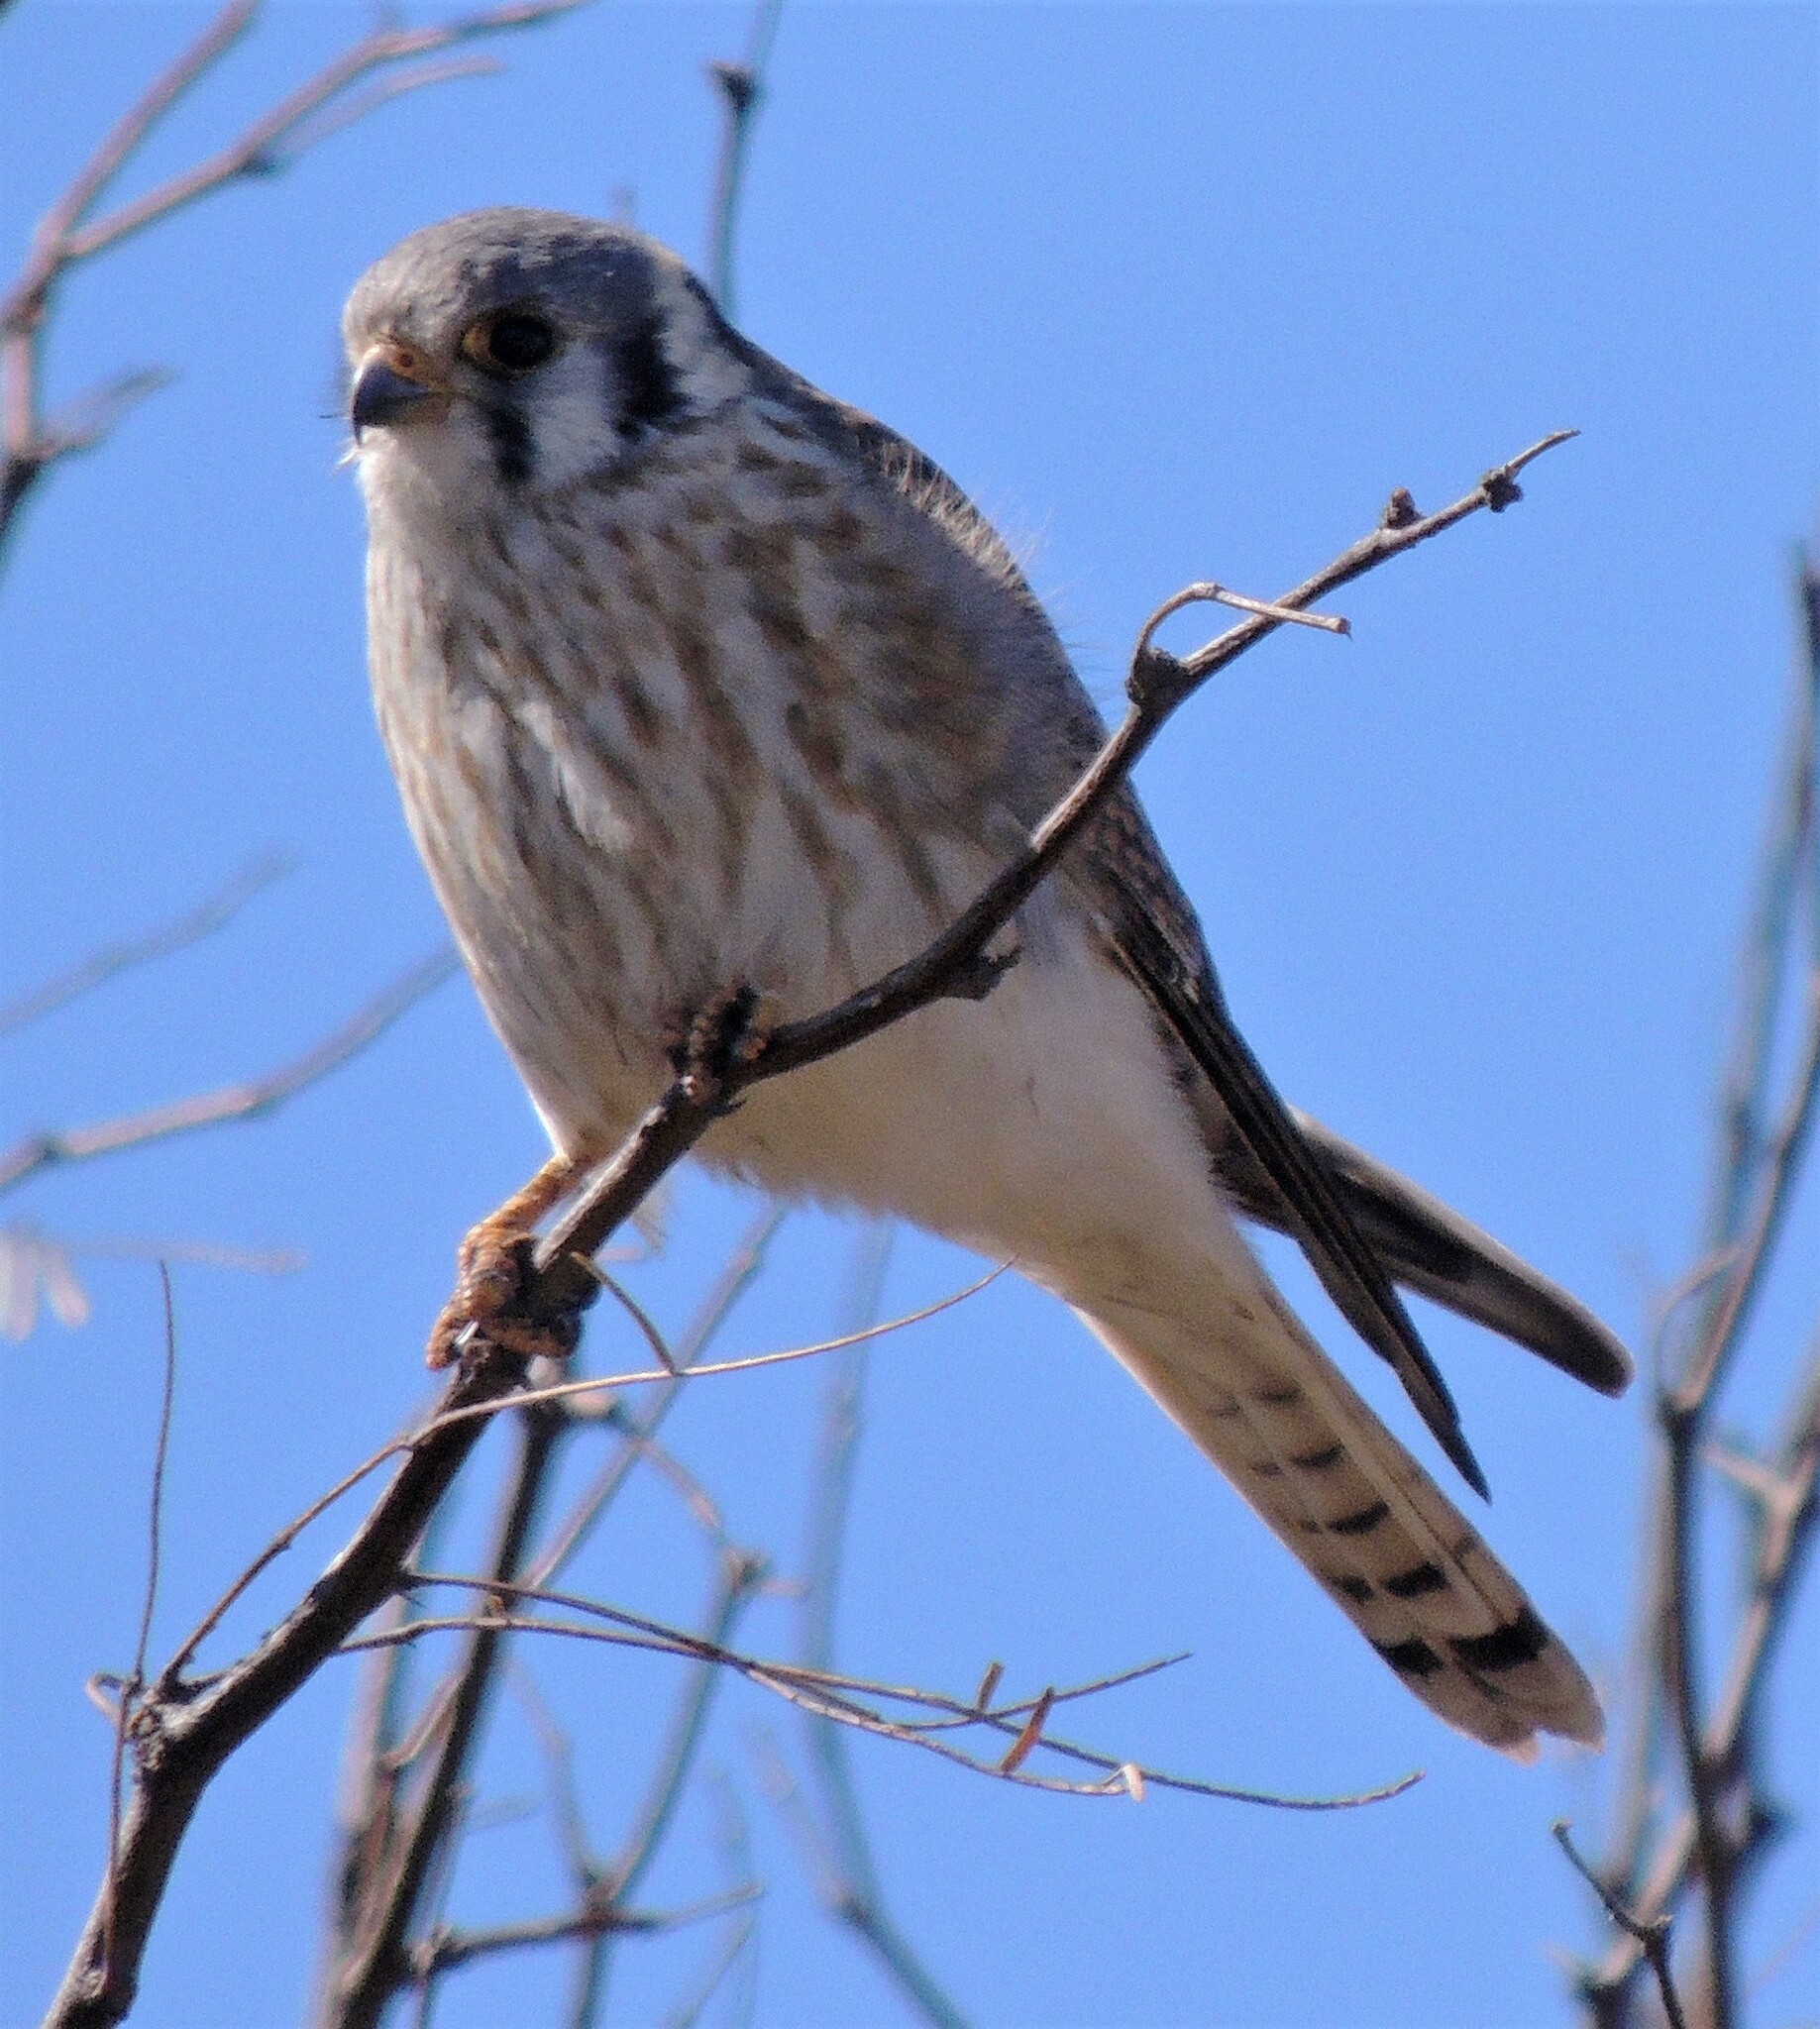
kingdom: Animalia
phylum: Chordata
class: Aves
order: Falconiformes
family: Falconidae
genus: Falco
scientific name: Falco sparverius
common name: American kestrel
